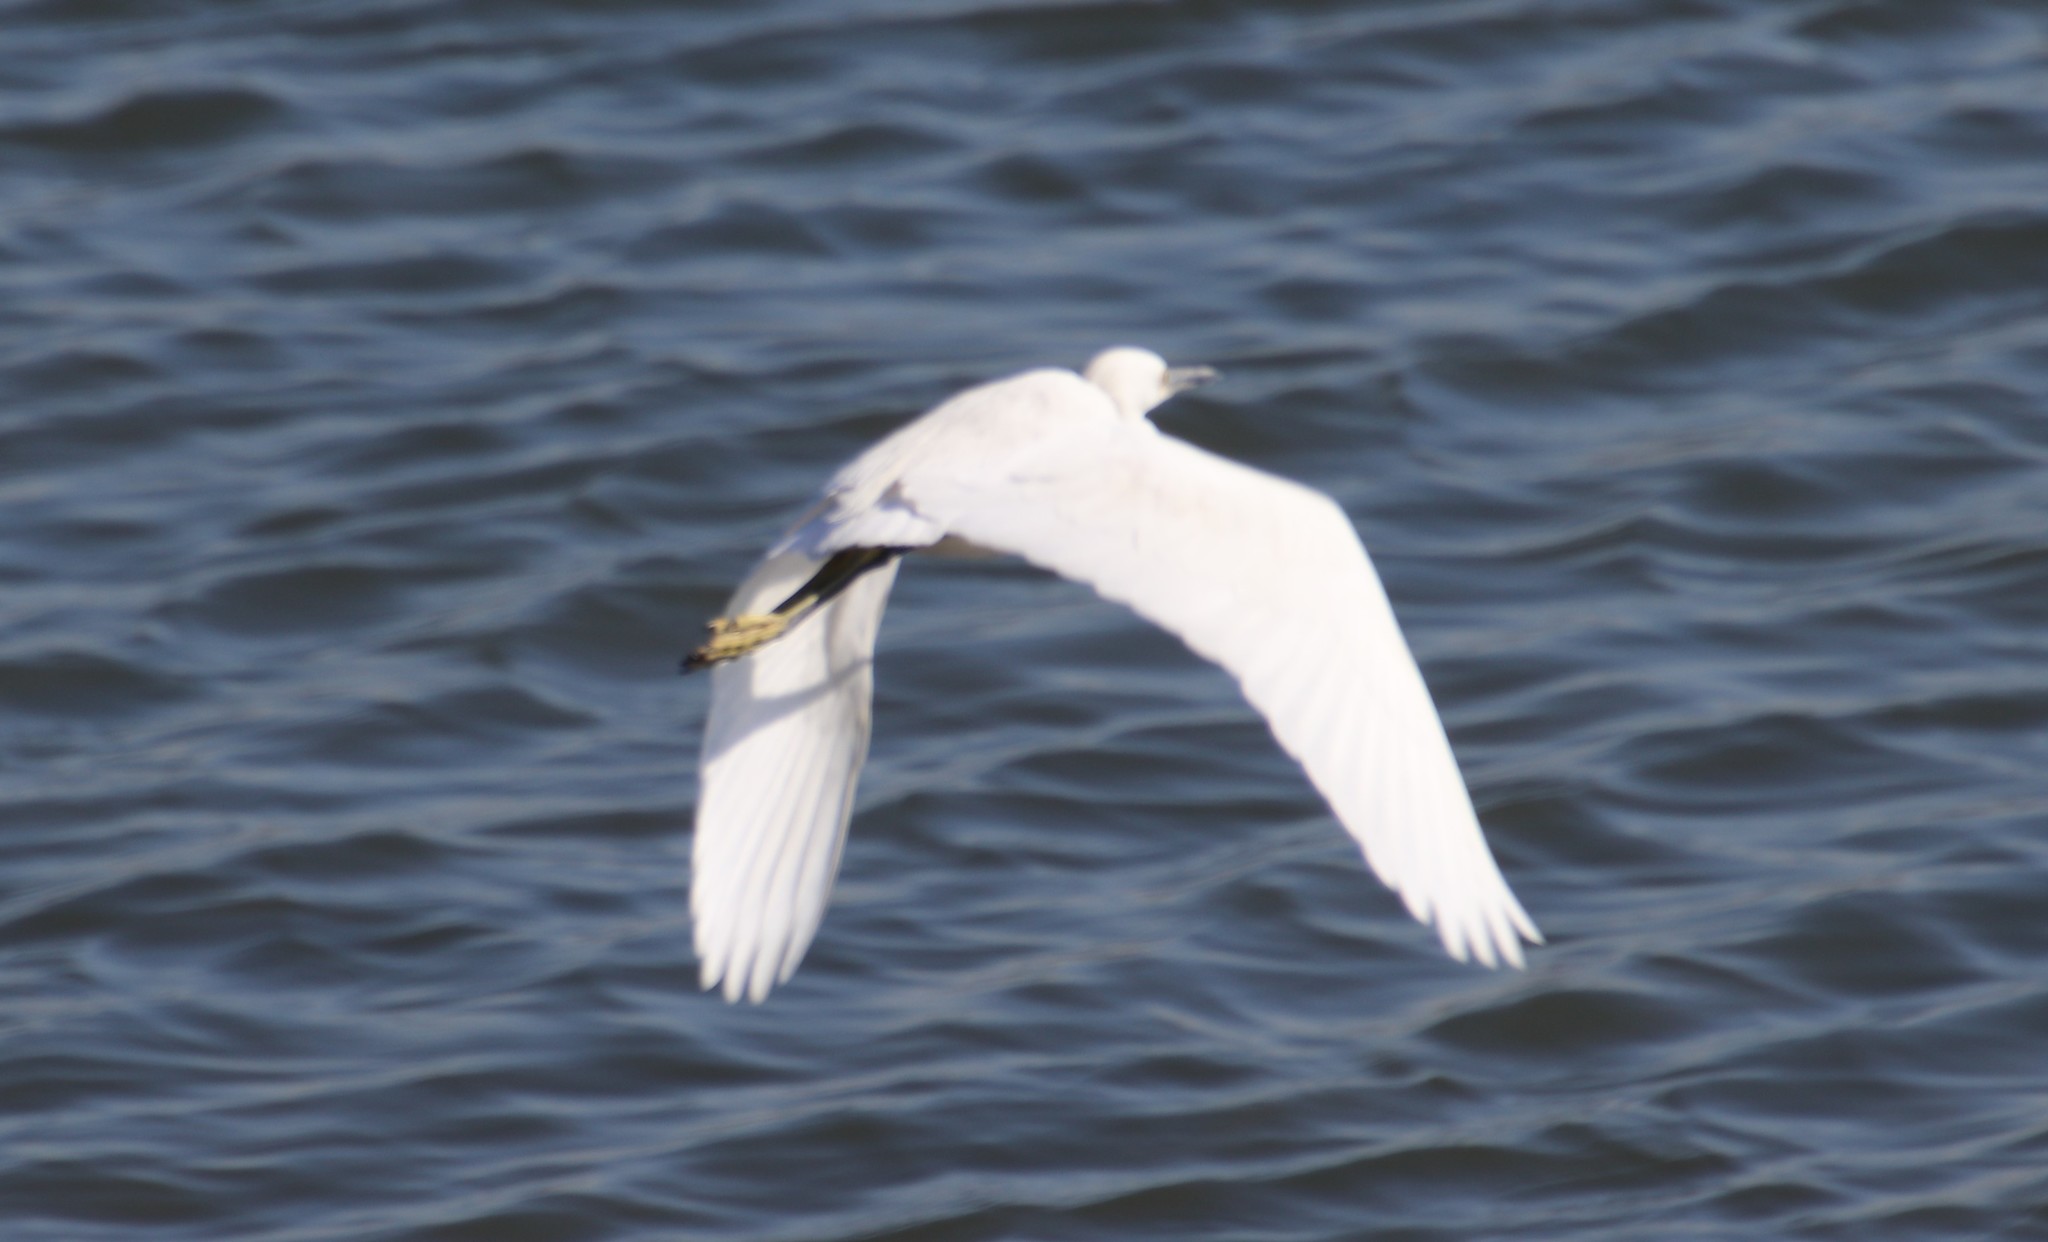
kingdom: Animalia
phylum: Chordata
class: Aves
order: Pelecaniformes
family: Ardeidae
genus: Egretta
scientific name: Egretta thula
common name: Snowy egret
